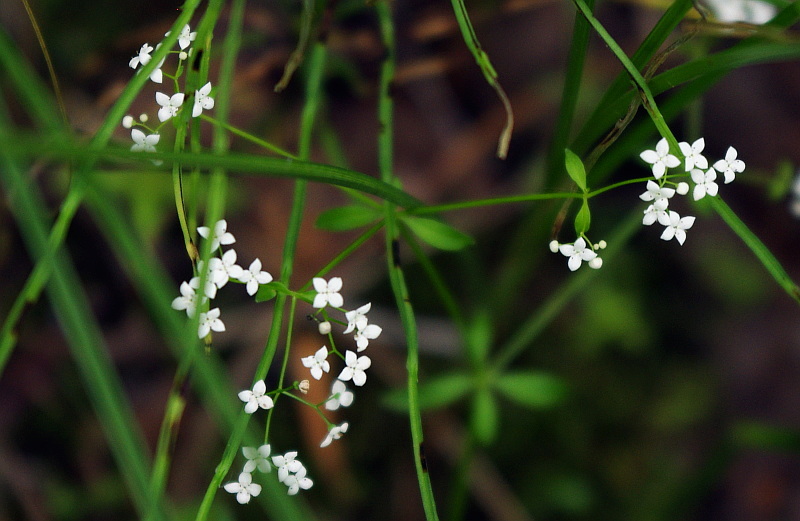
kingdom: Plantae
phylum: Tracheophyta
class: Magnoliopsida
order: Gentianales
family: Rubiaceae
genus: Galium
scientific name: Galium palustre
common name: Common marsh-bedstraw
